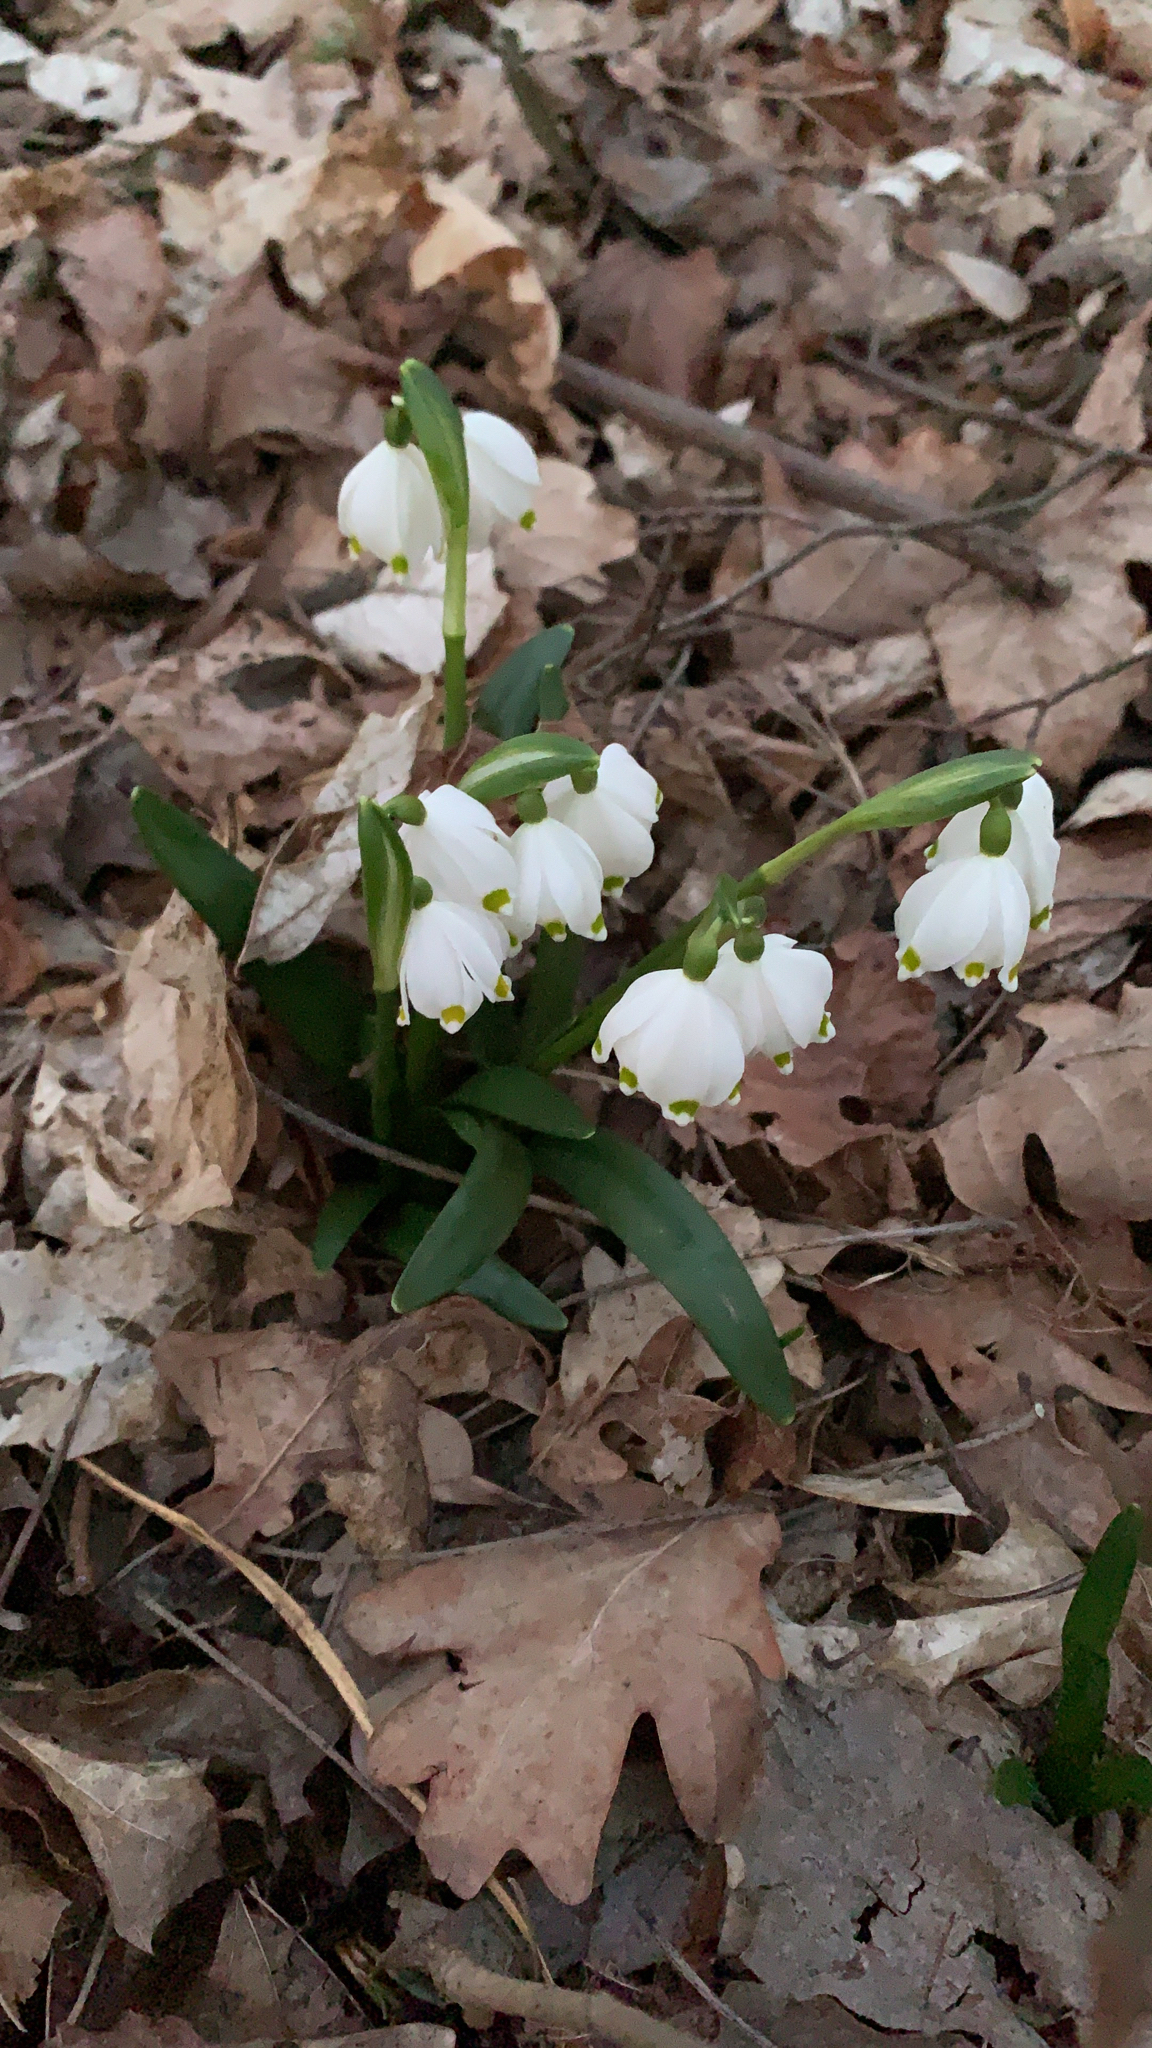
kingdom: Plantae
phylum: Tracheophyta
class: Liliopsida
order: Asparagales
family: Amaryllidaceae
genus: Leucojum
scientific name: Leucojum vernum
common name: Spring snowflake
